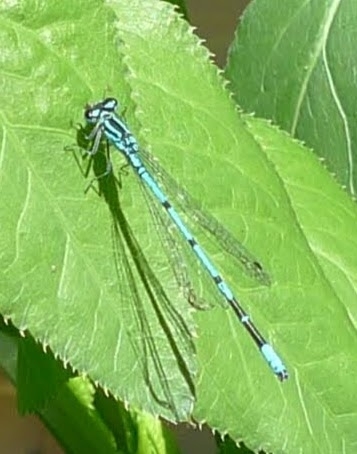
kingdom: Animalia
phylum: Arthropoda
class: Insecta
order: Odonata
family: Coenagrionidae
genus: Coenagrion
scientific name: Coenagrion puella
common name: Azure damselfly
